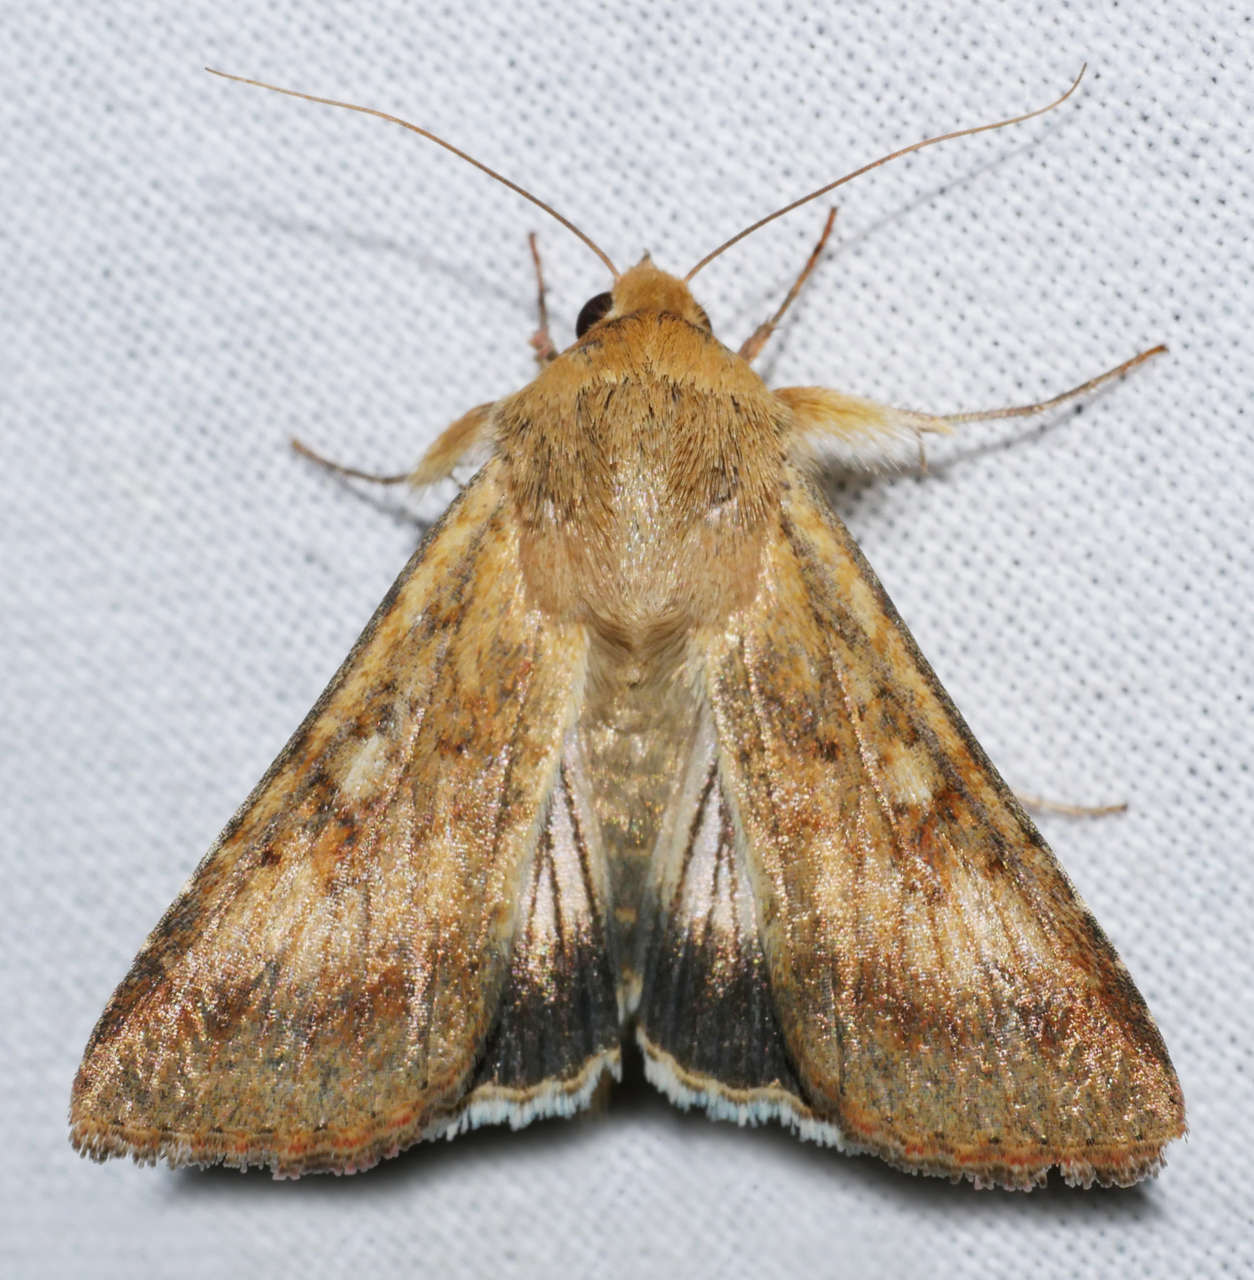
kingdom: Animalia
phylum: Arthropoda
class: Insecta
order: Lepidoptera
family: Noctuidae
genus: Helicoverpa
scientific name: Helicoverpa punctigera
